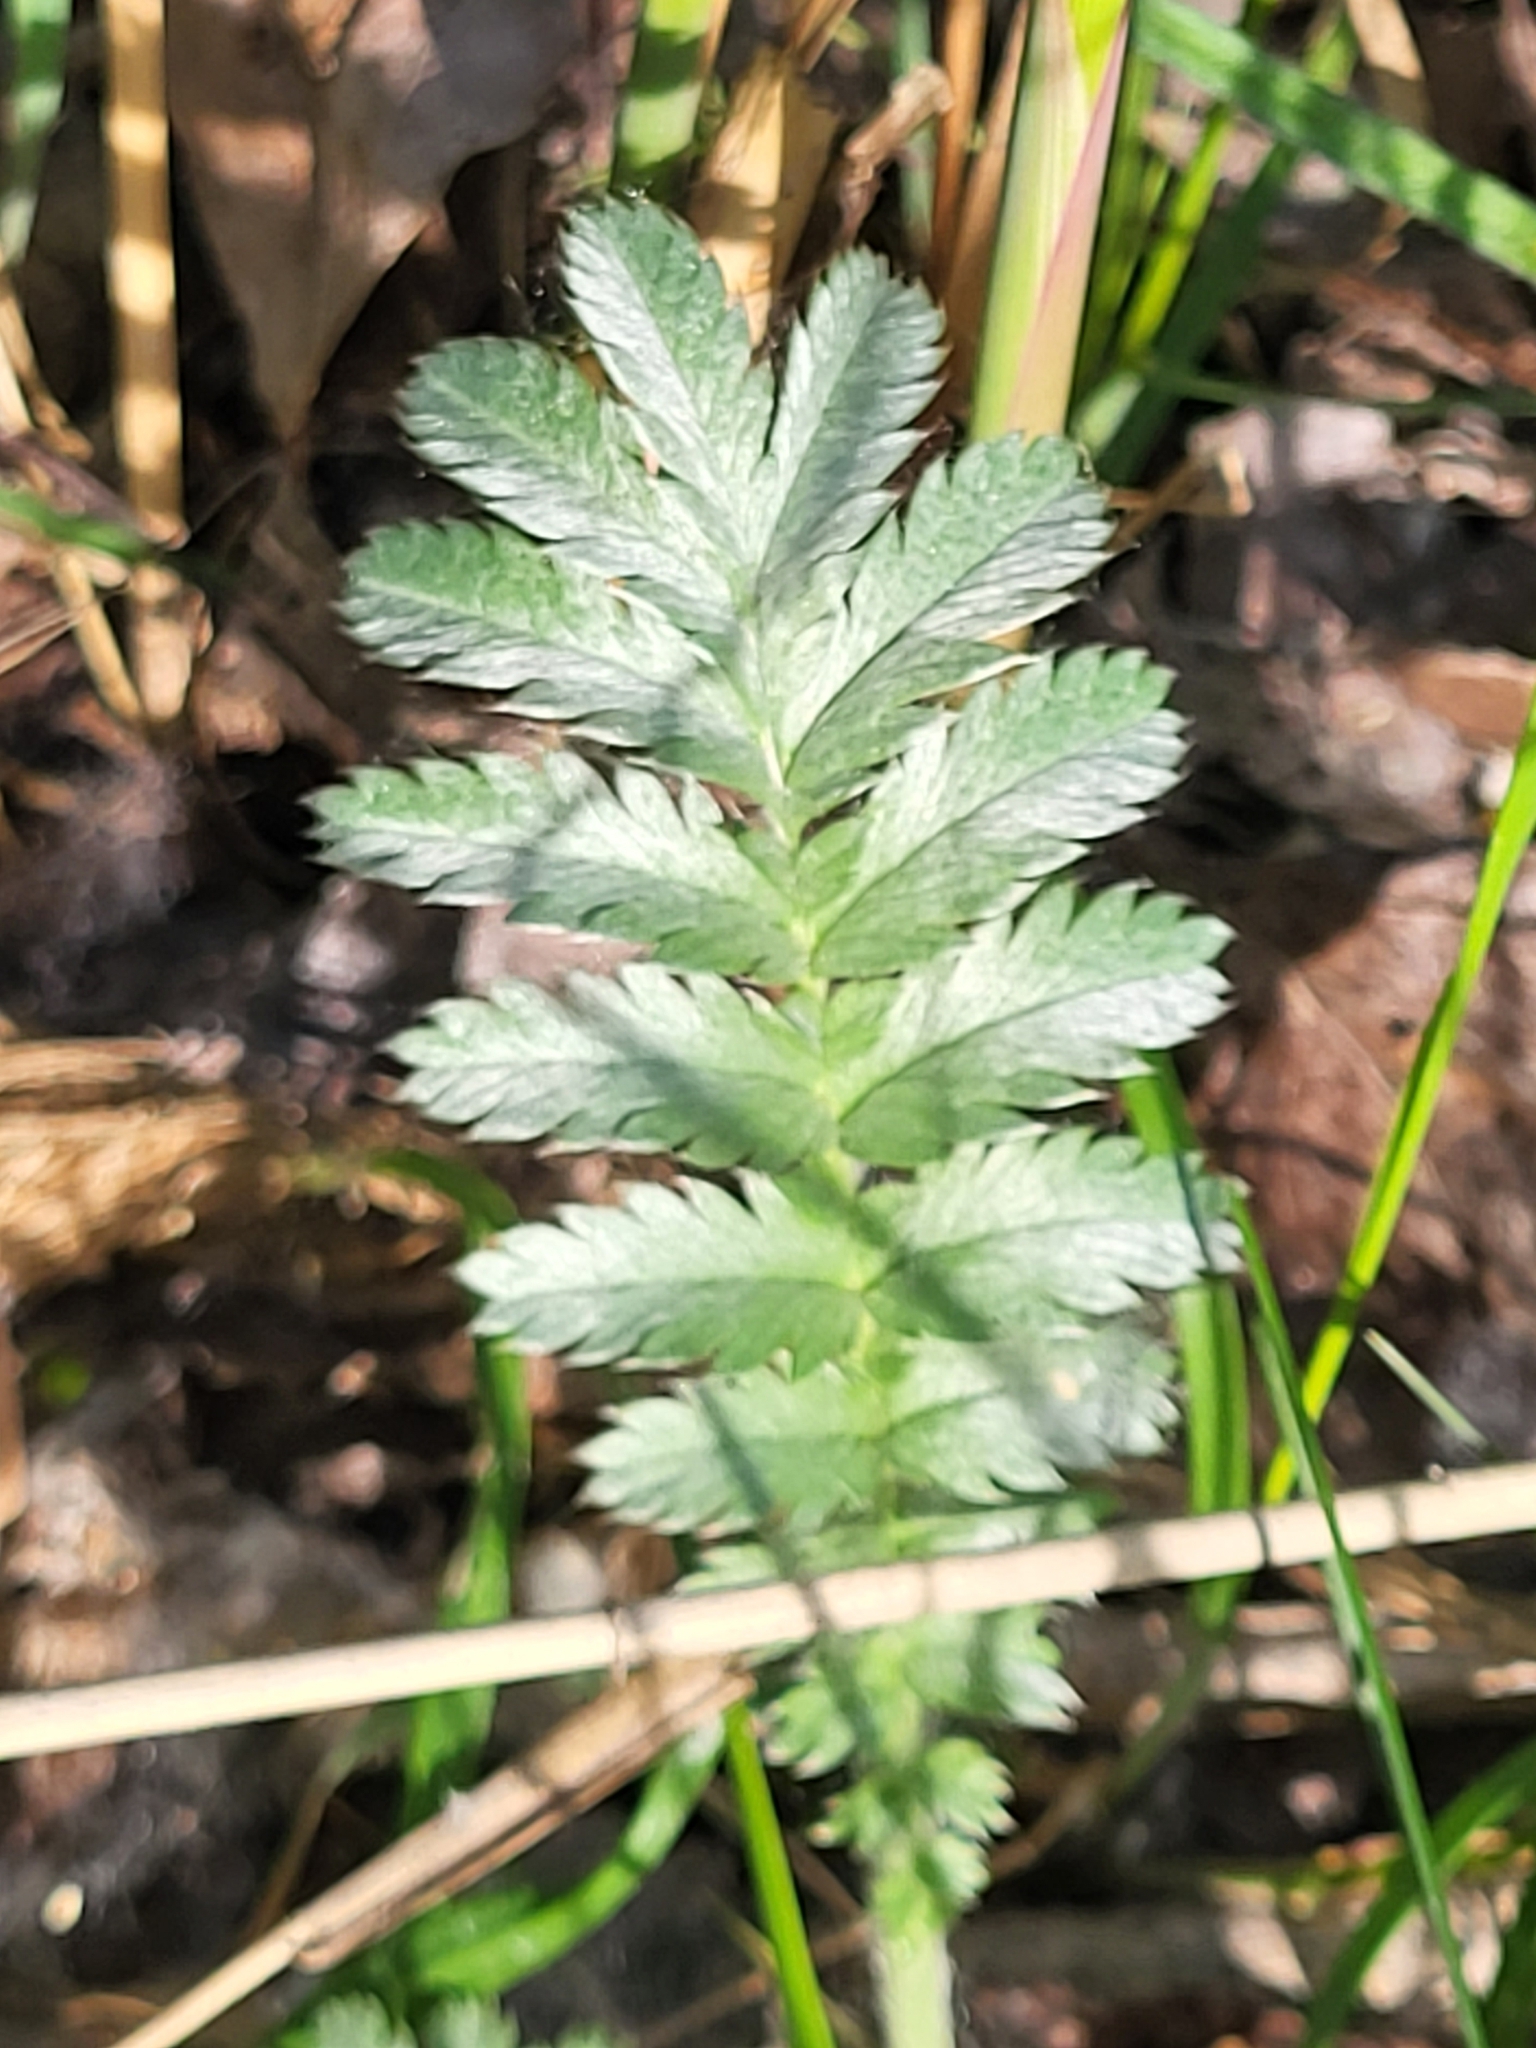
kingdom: Plantae
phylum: Tracheophyta
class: Magnoliopsida
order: Rosales
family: Rosaceae
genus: Argentina
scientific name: Argentina anserina
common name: Common silverweed
